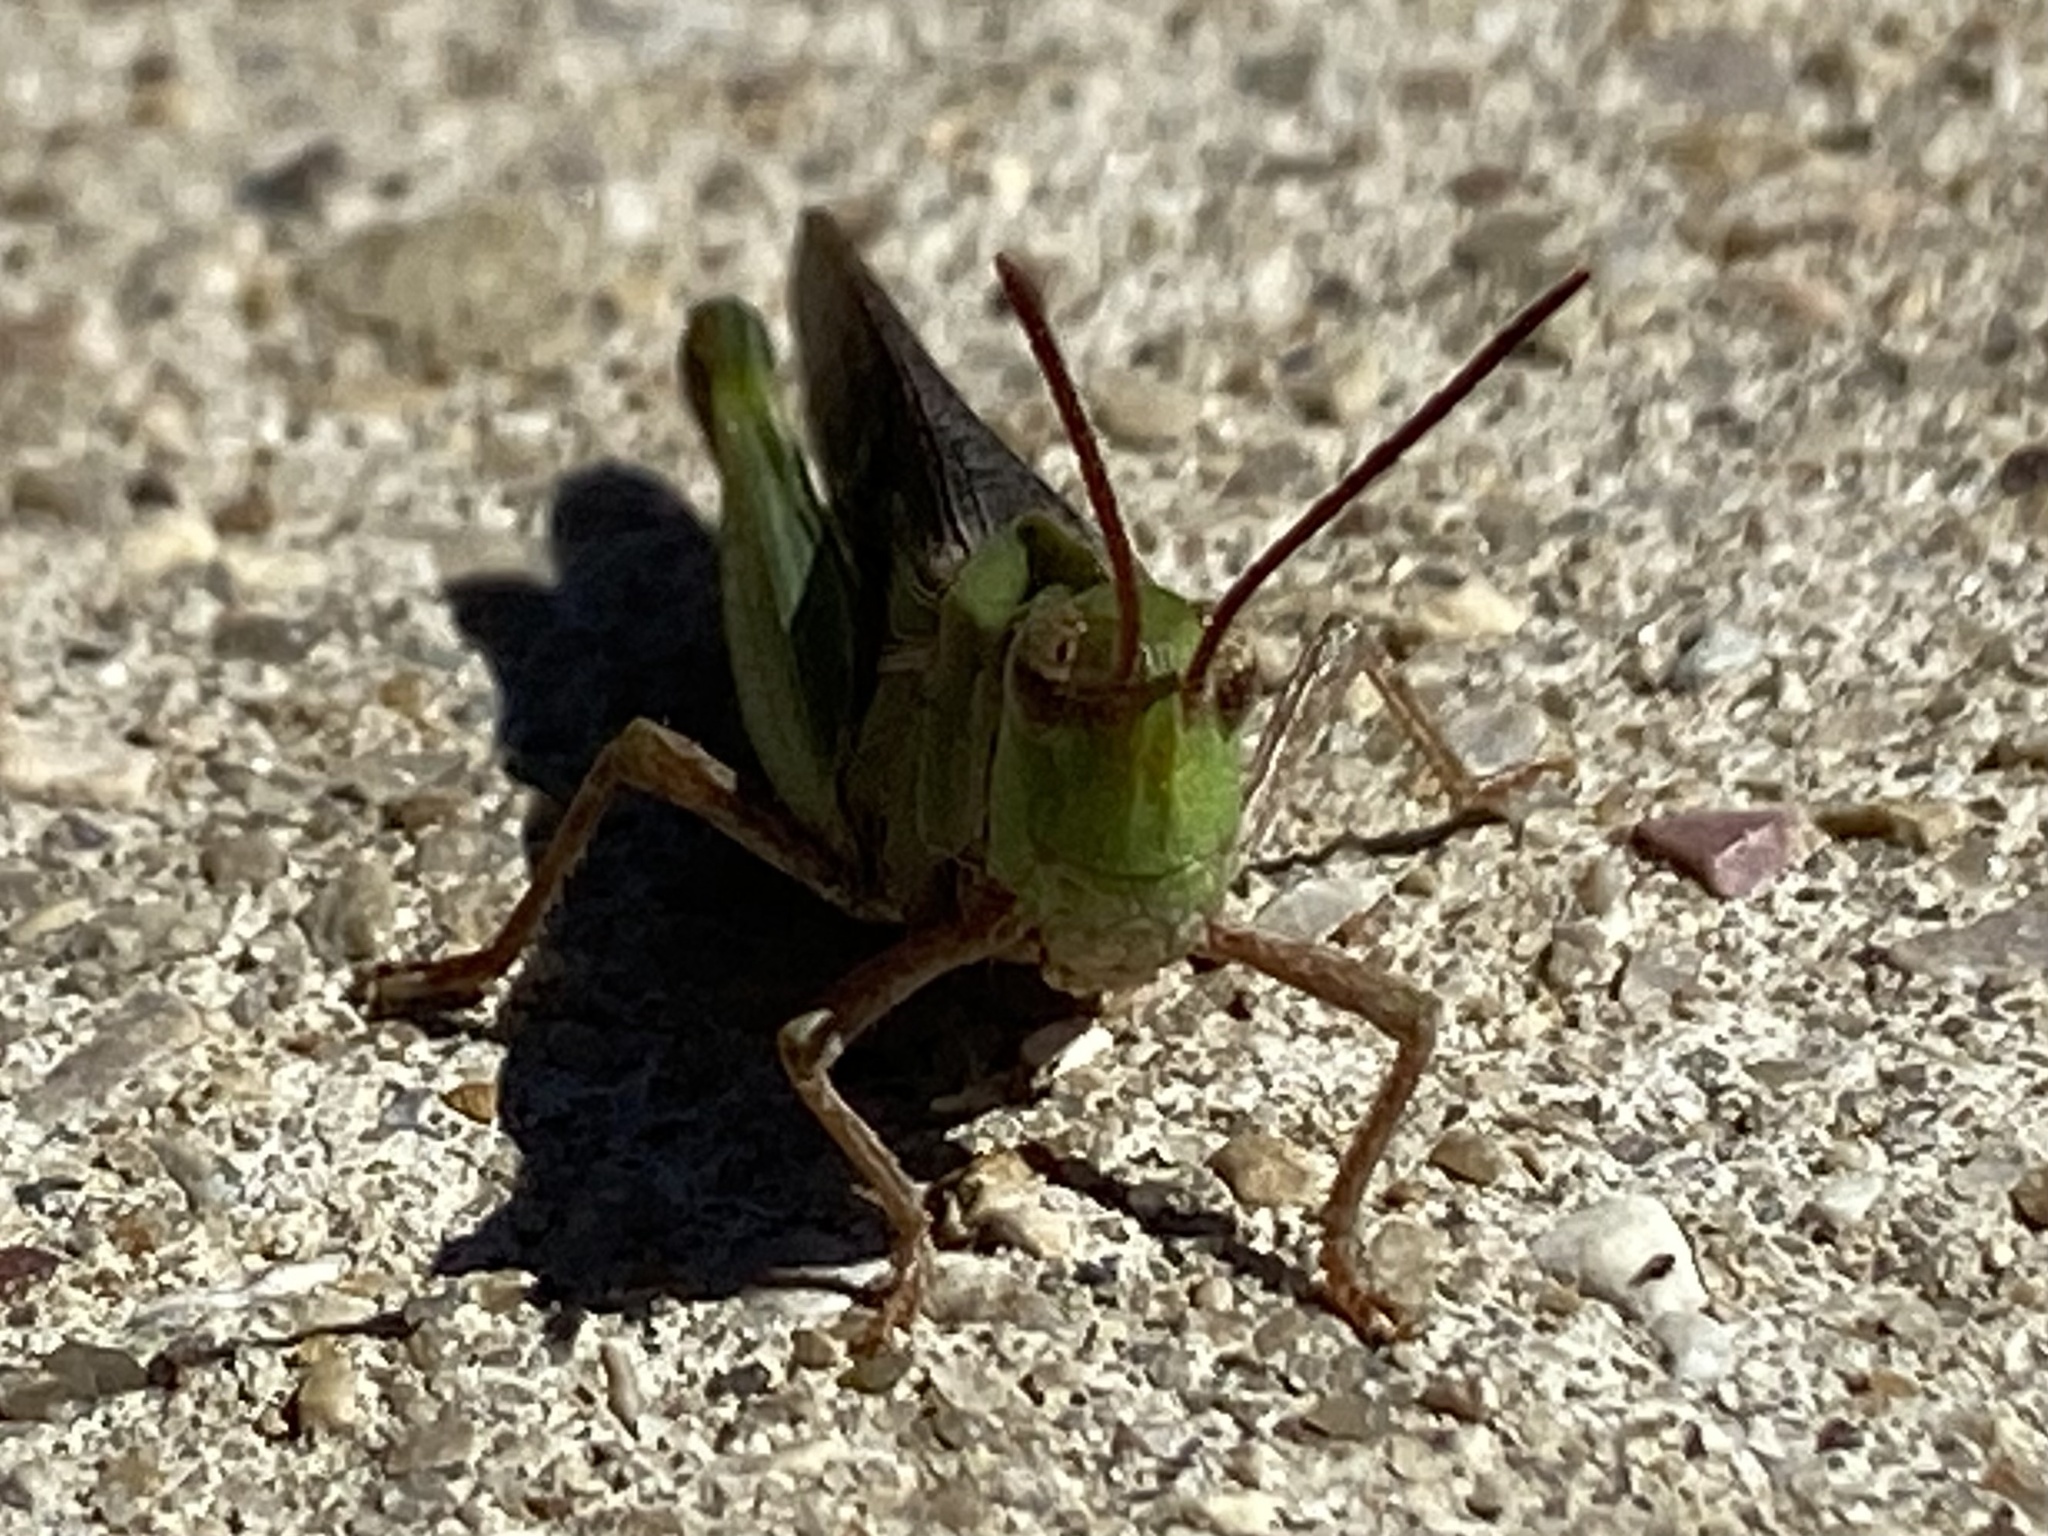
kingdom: Animalia
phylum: Arthropoda
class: Insecta
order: Orthoptera
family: Acrididae
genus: Chortophaga
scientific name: Chortophaga viridifasciata
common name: Green-striped grasshopper
